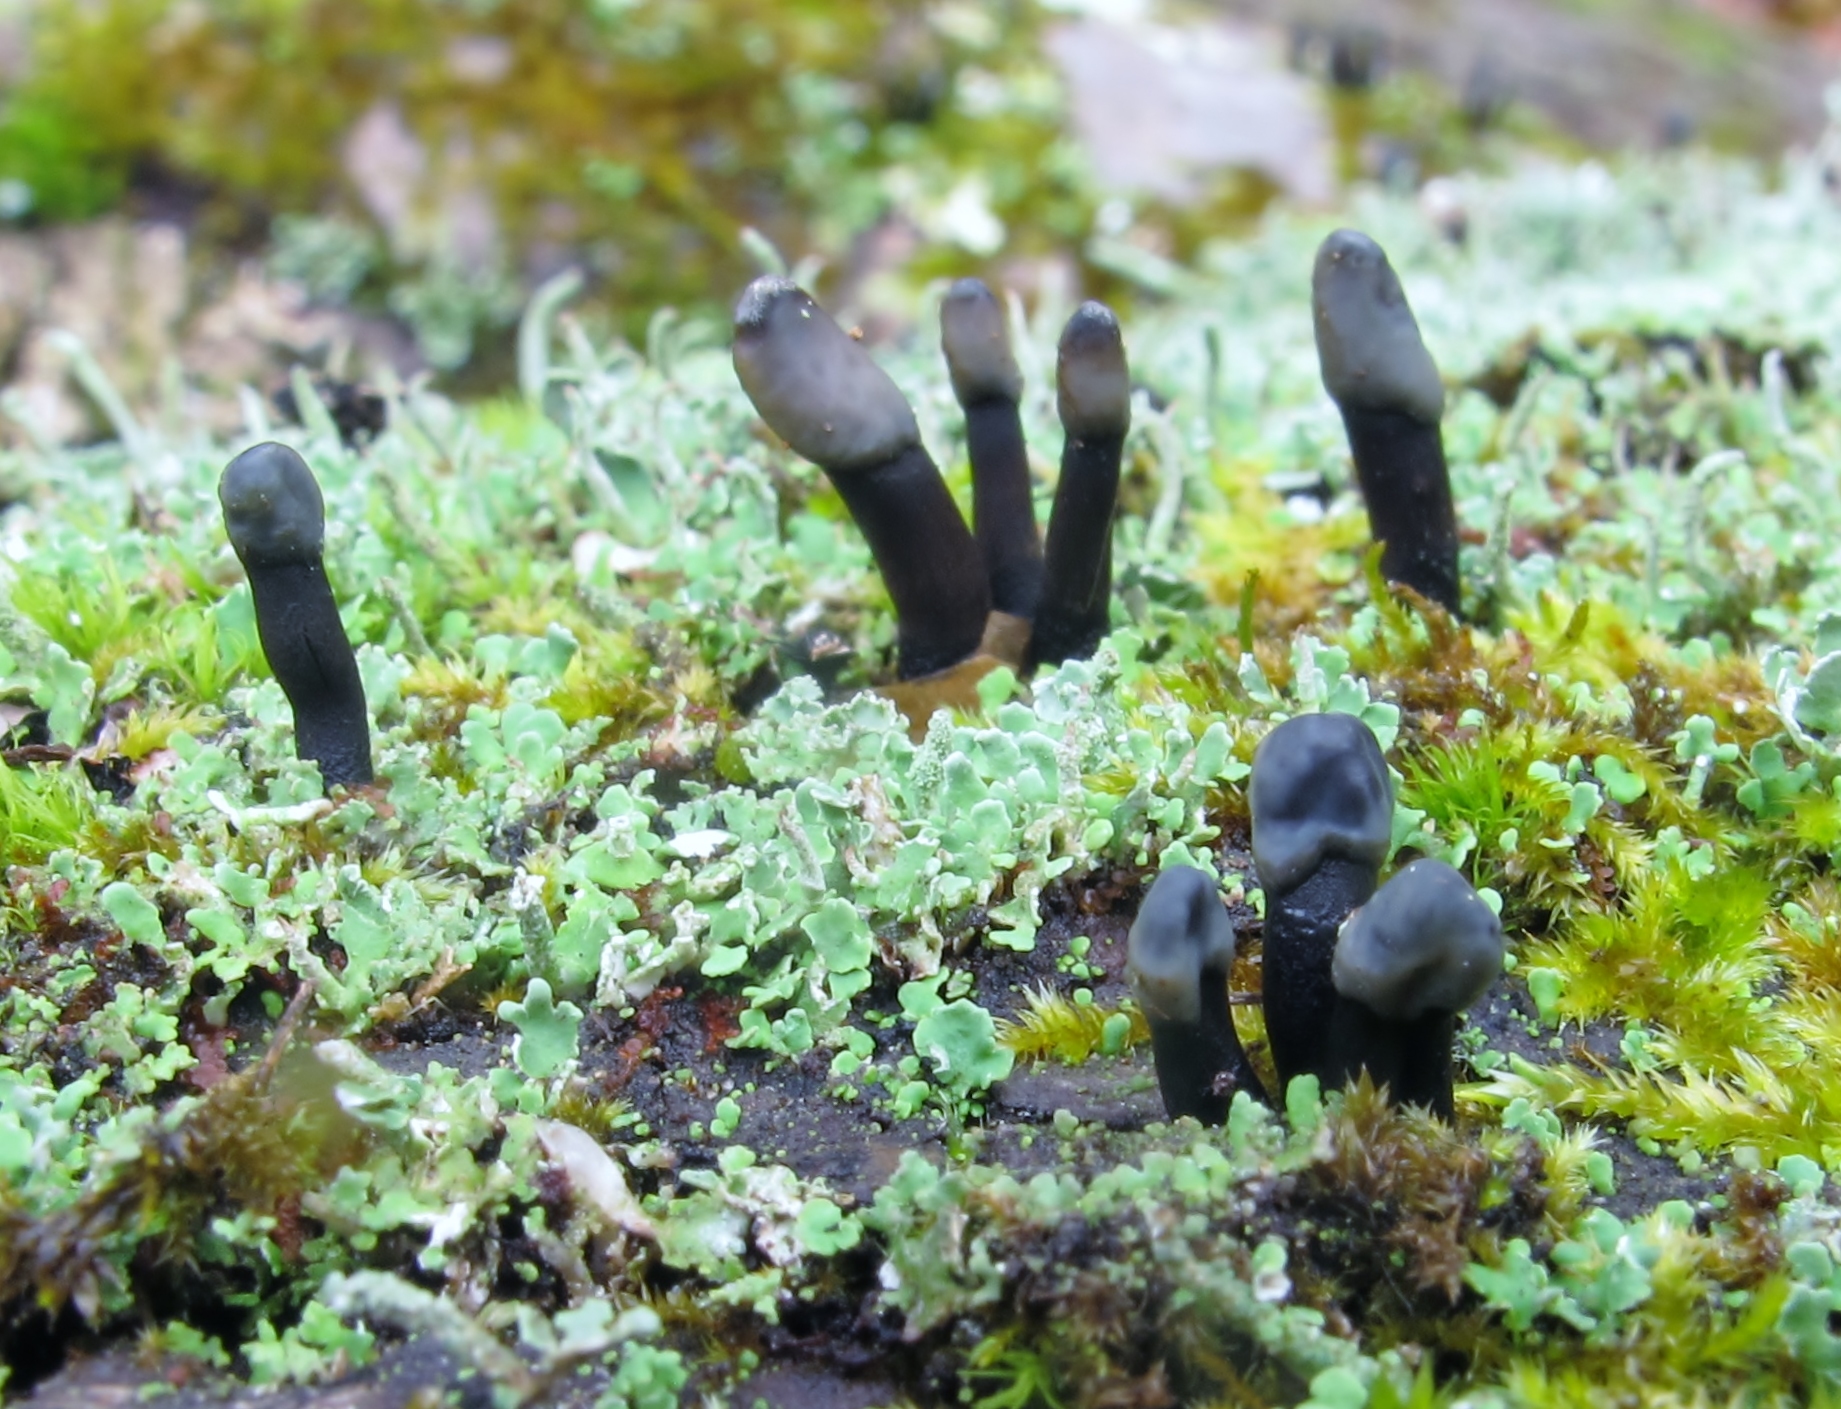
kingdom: Fungi
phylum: Ascomycota
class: Leotiomycetes
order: Helotiales
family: Bulgariaceae
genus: Holwaya
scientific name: Holwaya mucida
